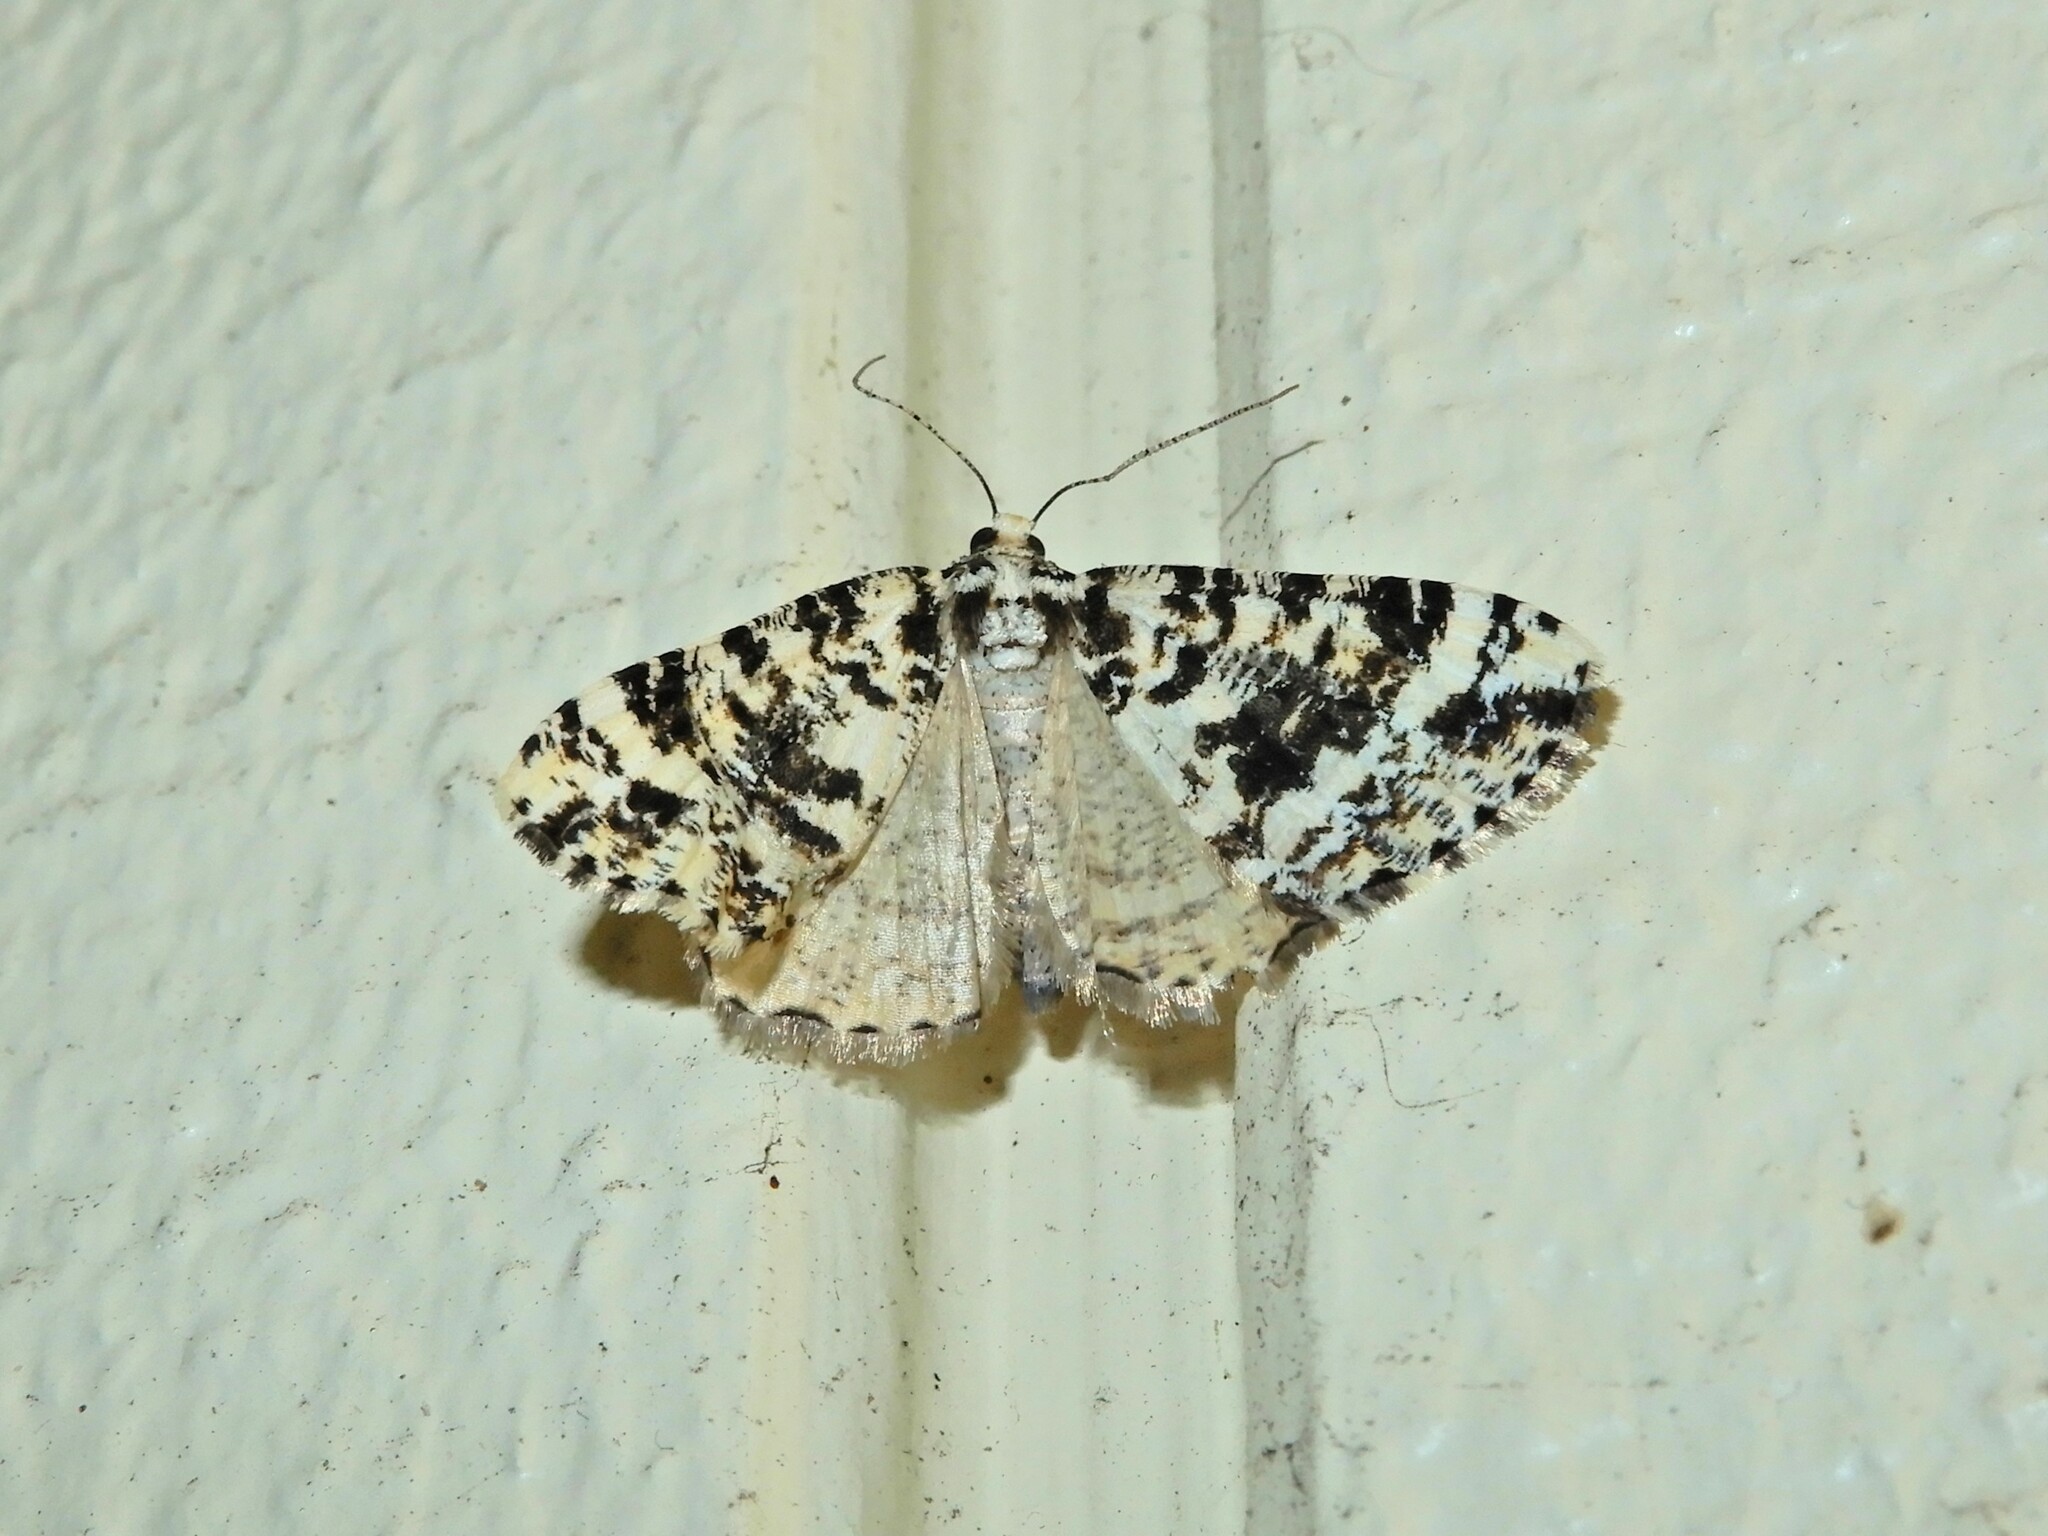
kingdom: Animalia
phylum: Arthropoda
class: Insecta
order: Lepidoptera
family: Geometridae
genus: Pseudocoremia
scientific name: Pseudocoremia leucelaea
